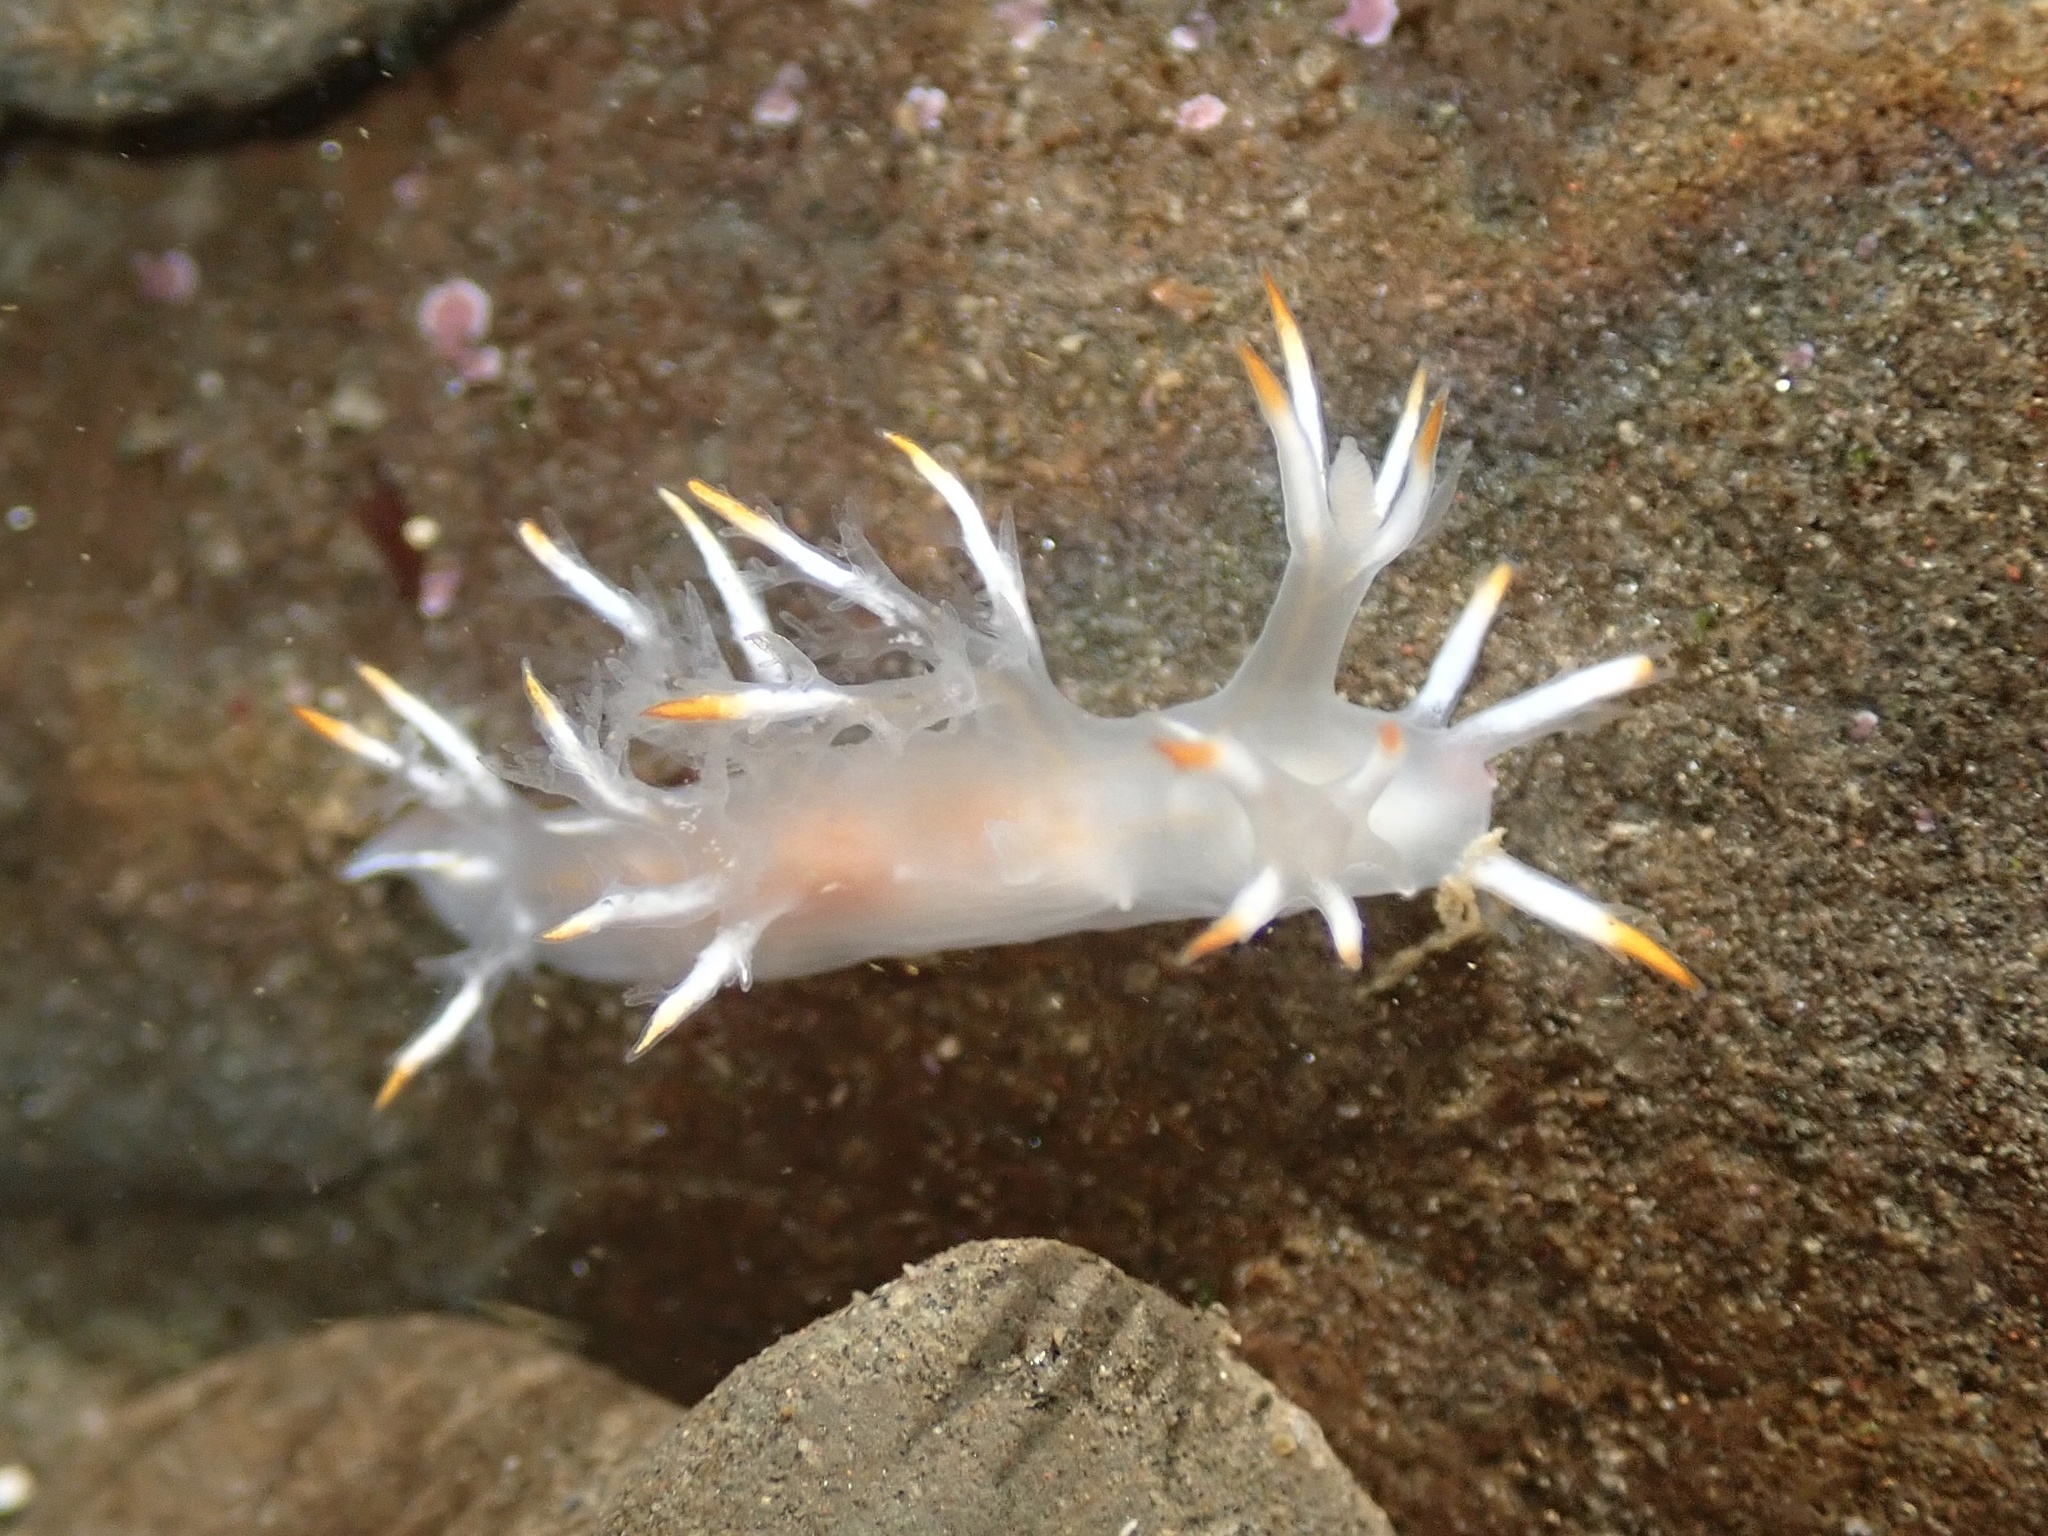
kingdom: Animalia
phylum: Mollusca
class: Gastropoda
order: Nudibranchia
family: Dendronotidae
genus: Dendronotus
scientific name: Dendronotus albus
